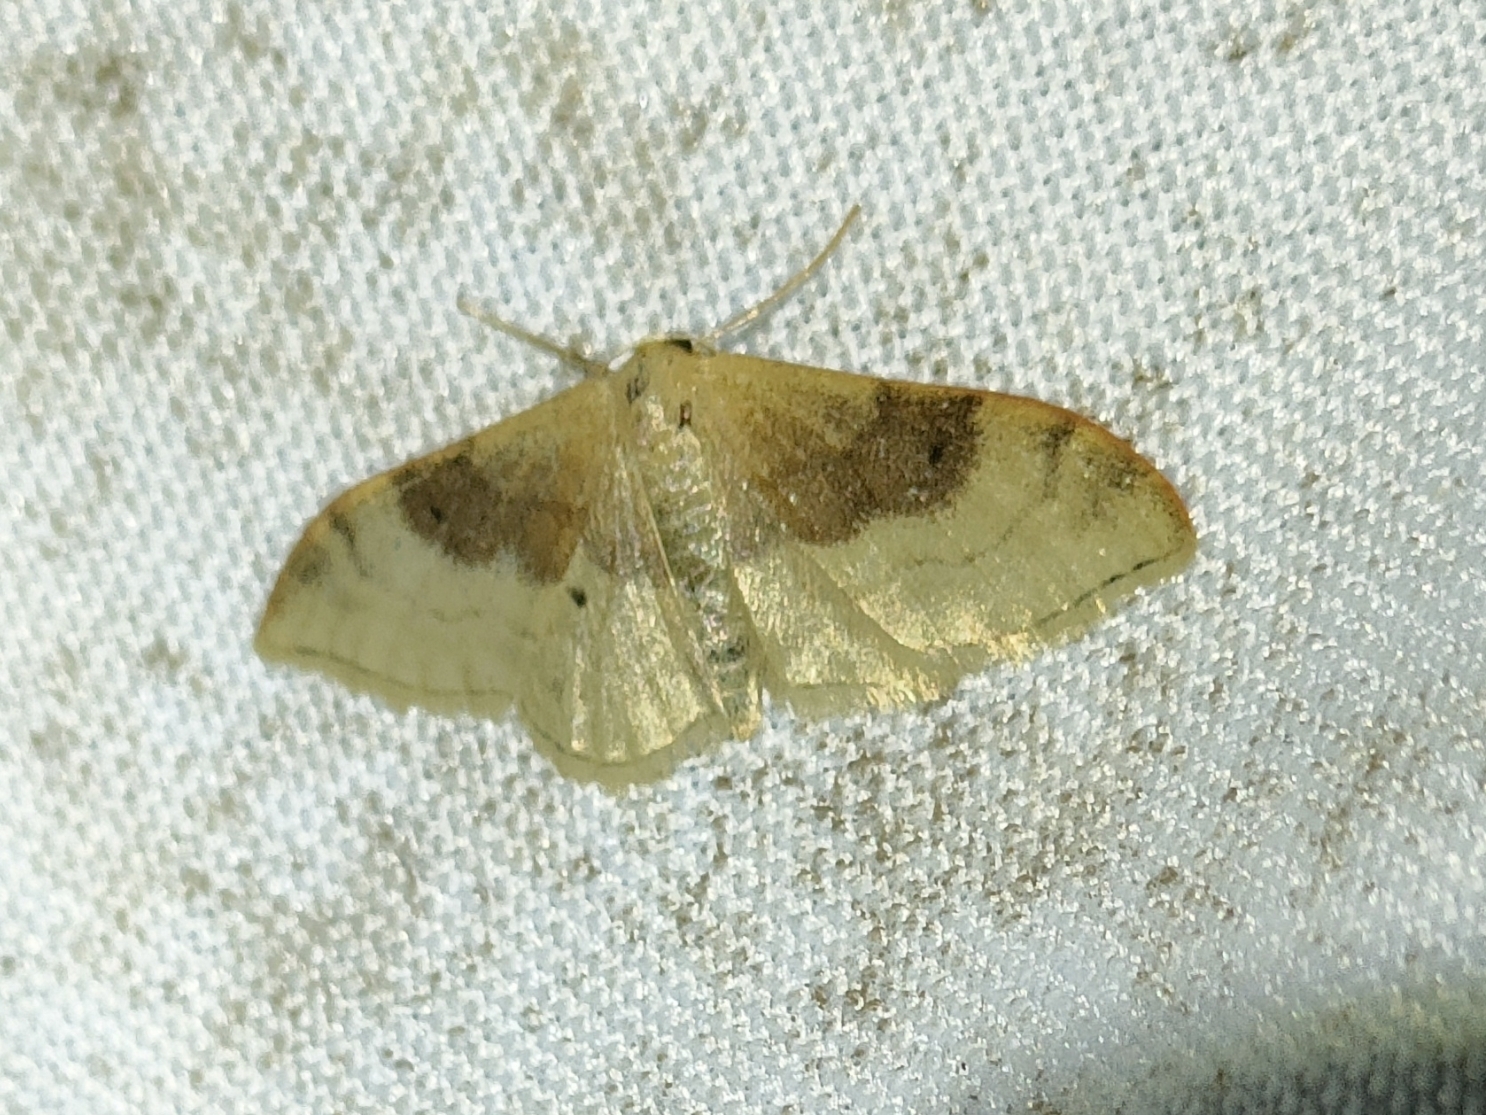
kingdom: Animalia
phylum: Arthropoda
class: Insecta
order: Lepidoptera
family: Geometridae
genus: Idaea
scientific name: Idaea degeneraria
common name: Portland ribbon wave
